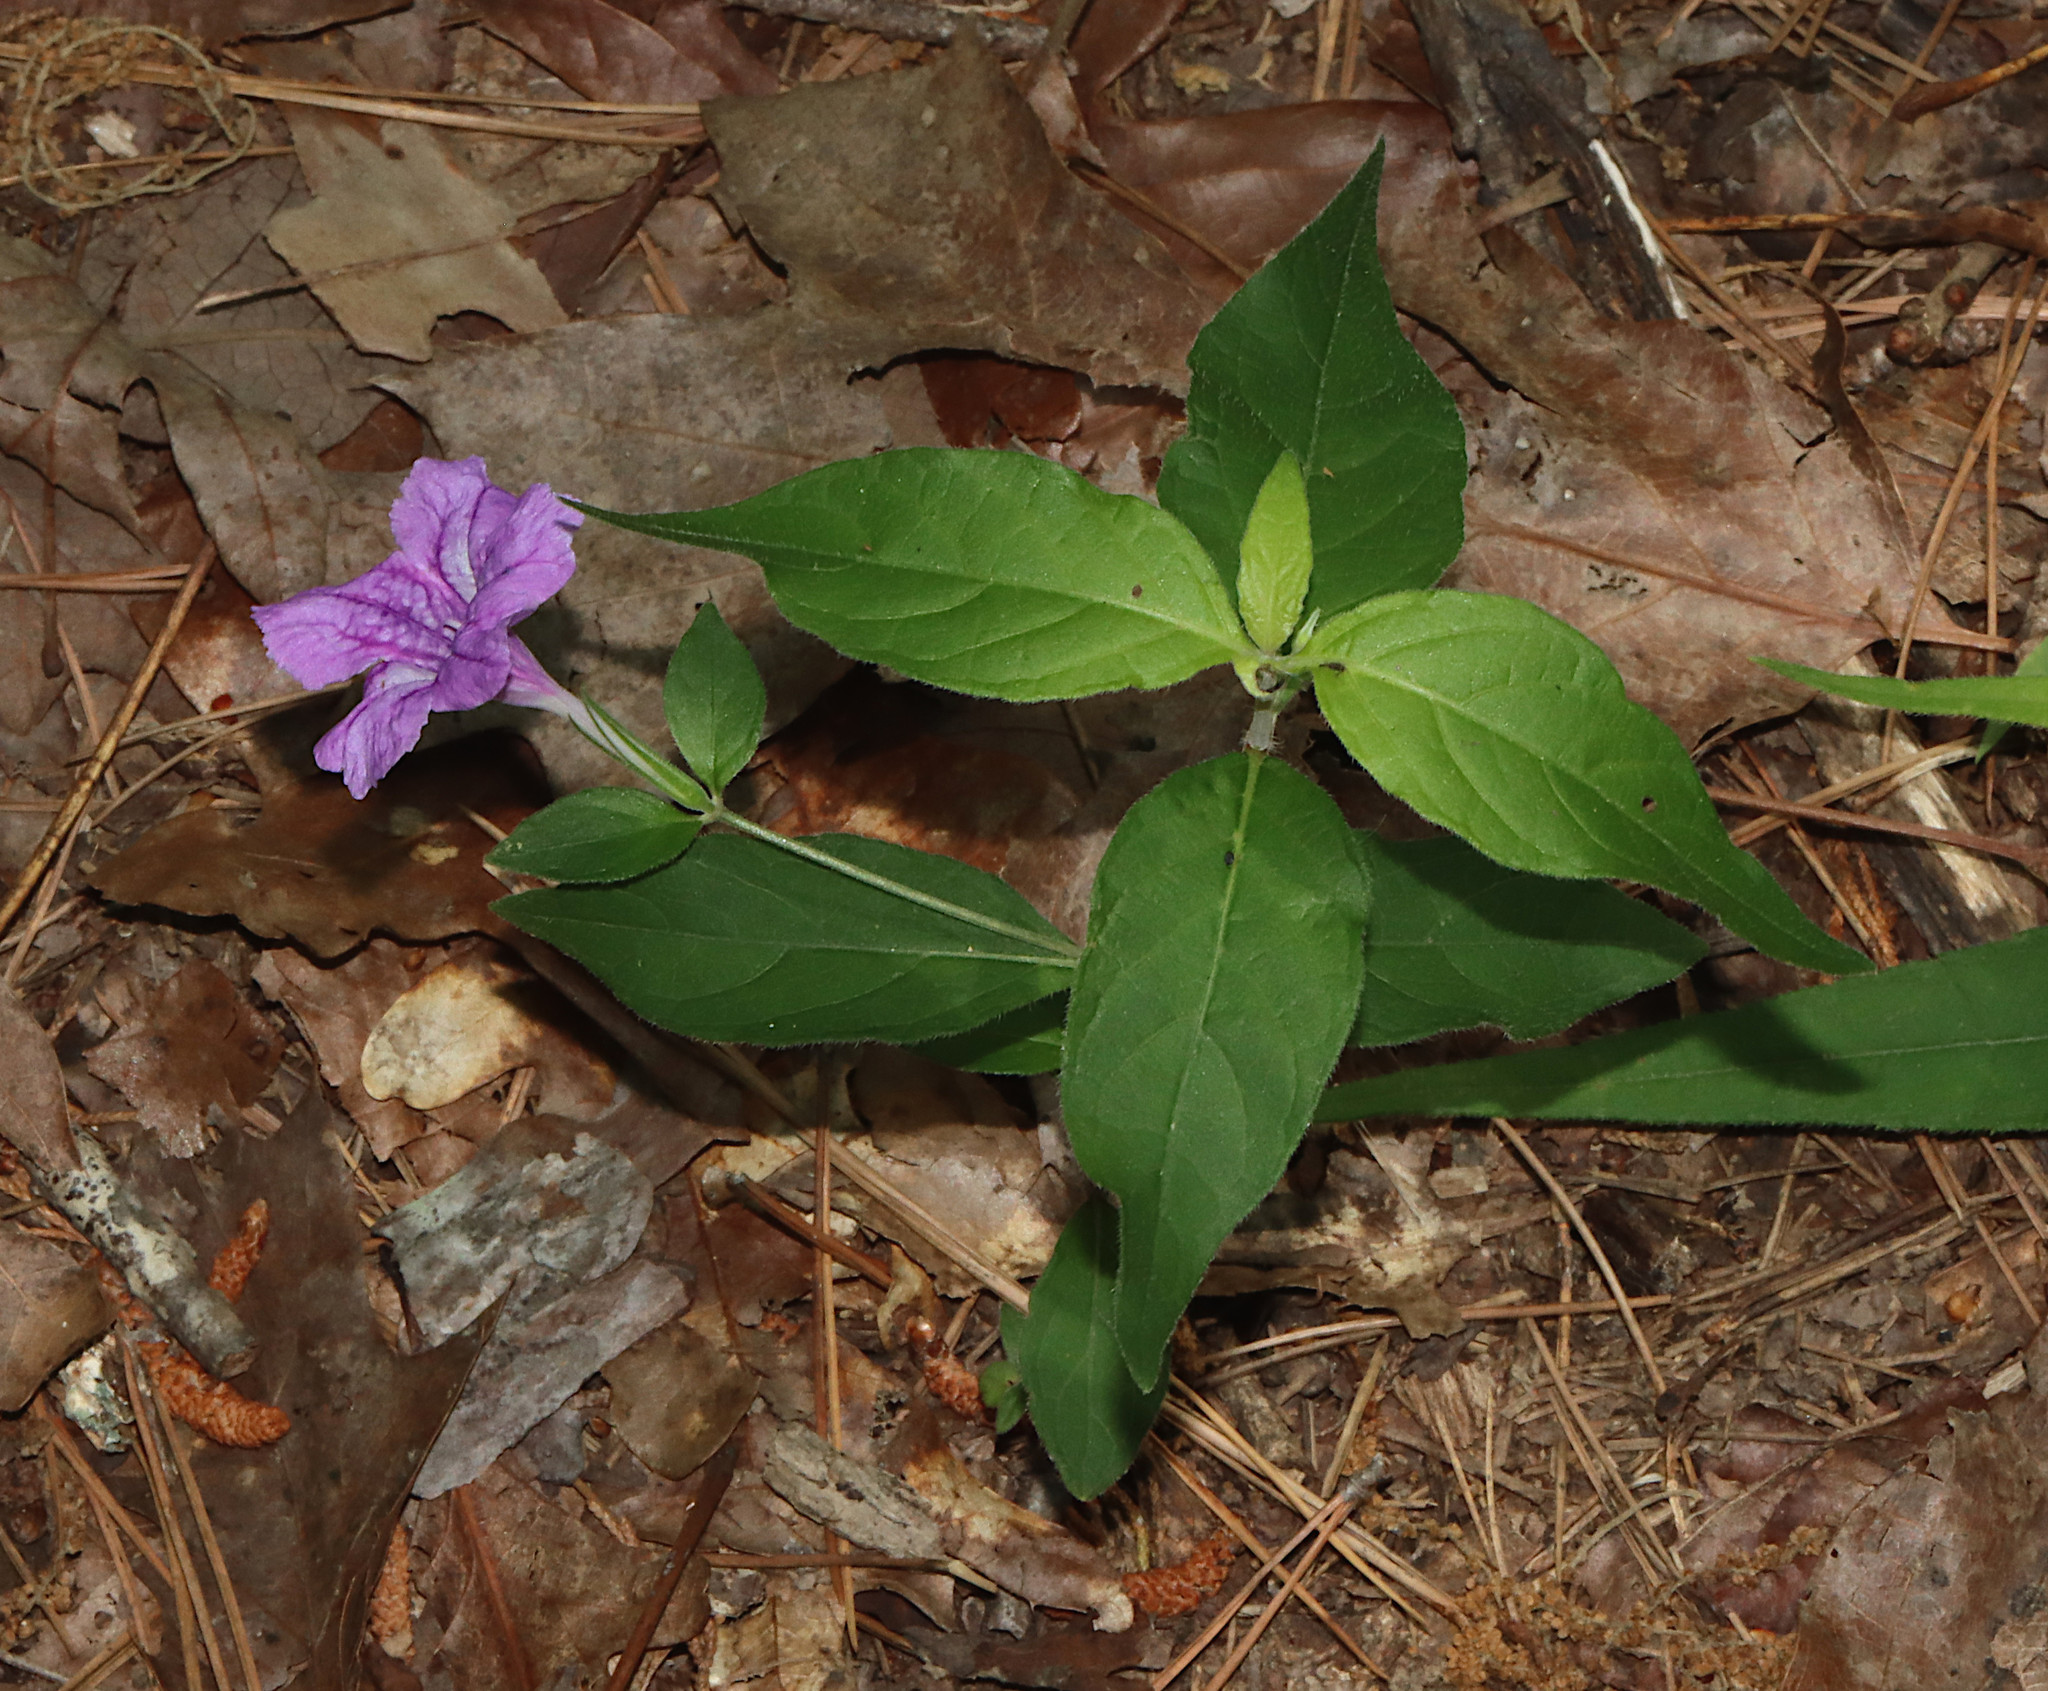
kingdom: Plantae
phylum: Tracheophyta
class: Magnoliopsida
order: Lamiales
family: Acanthaceae
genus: Ruellia
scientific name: Ruellia pedunculata
